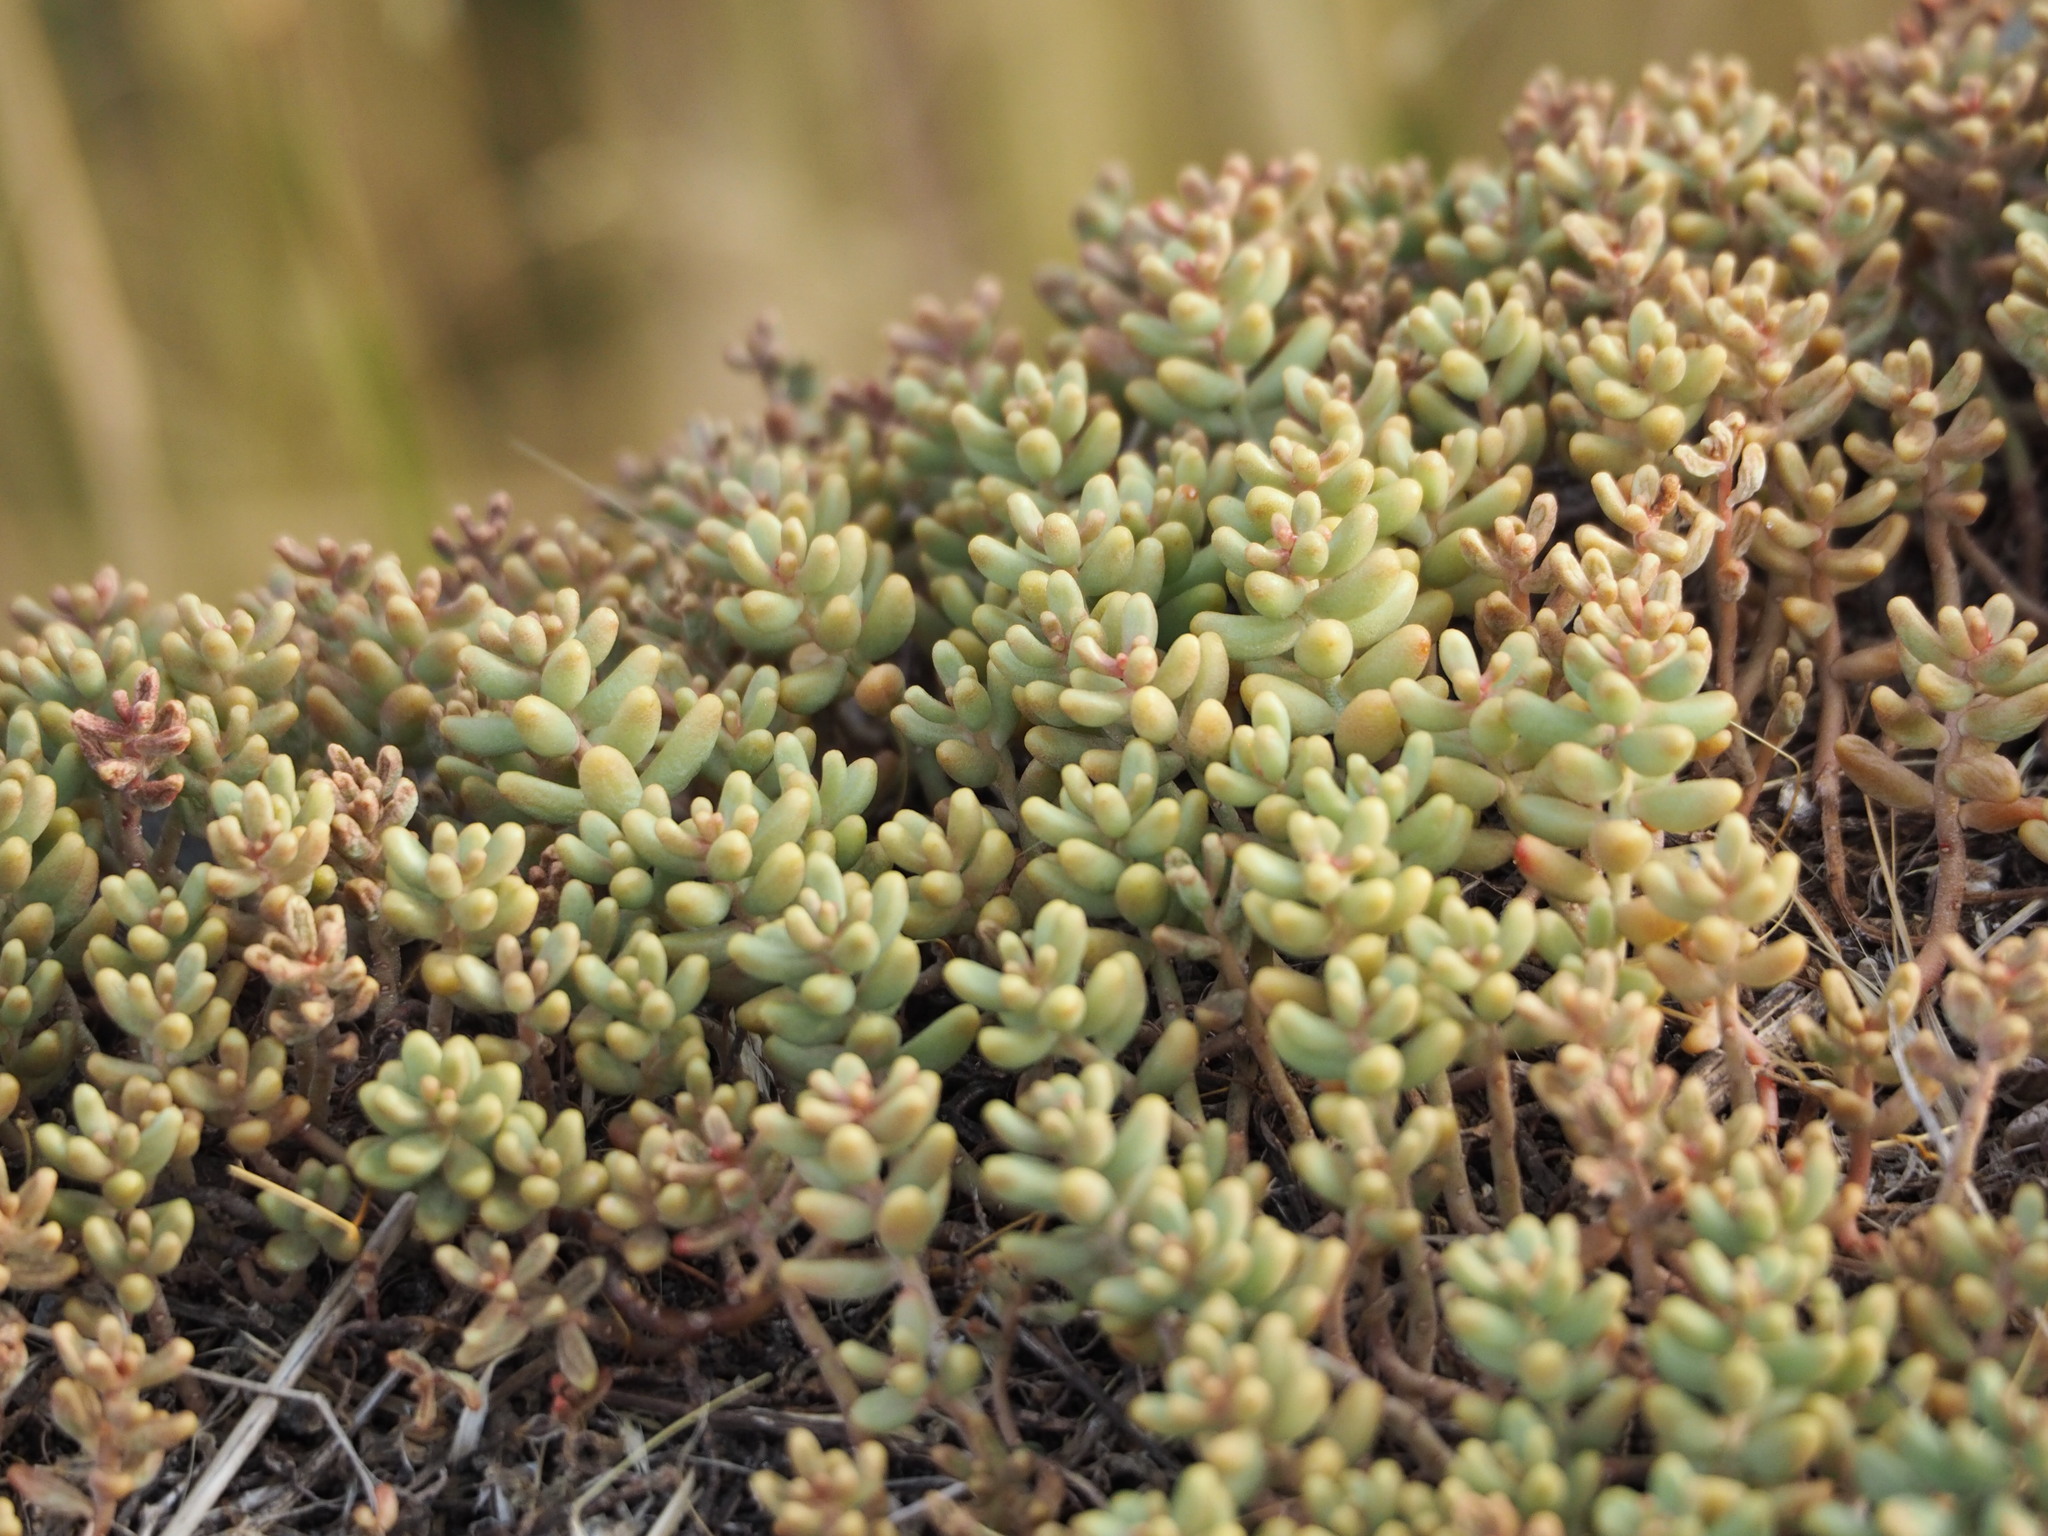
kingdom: Plantae
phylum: Tracheophyta
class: Magnoliopsida
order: Saxifragales
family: Crassulaceae
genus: Sedum
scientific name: Sedum album
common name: White stonecrop
